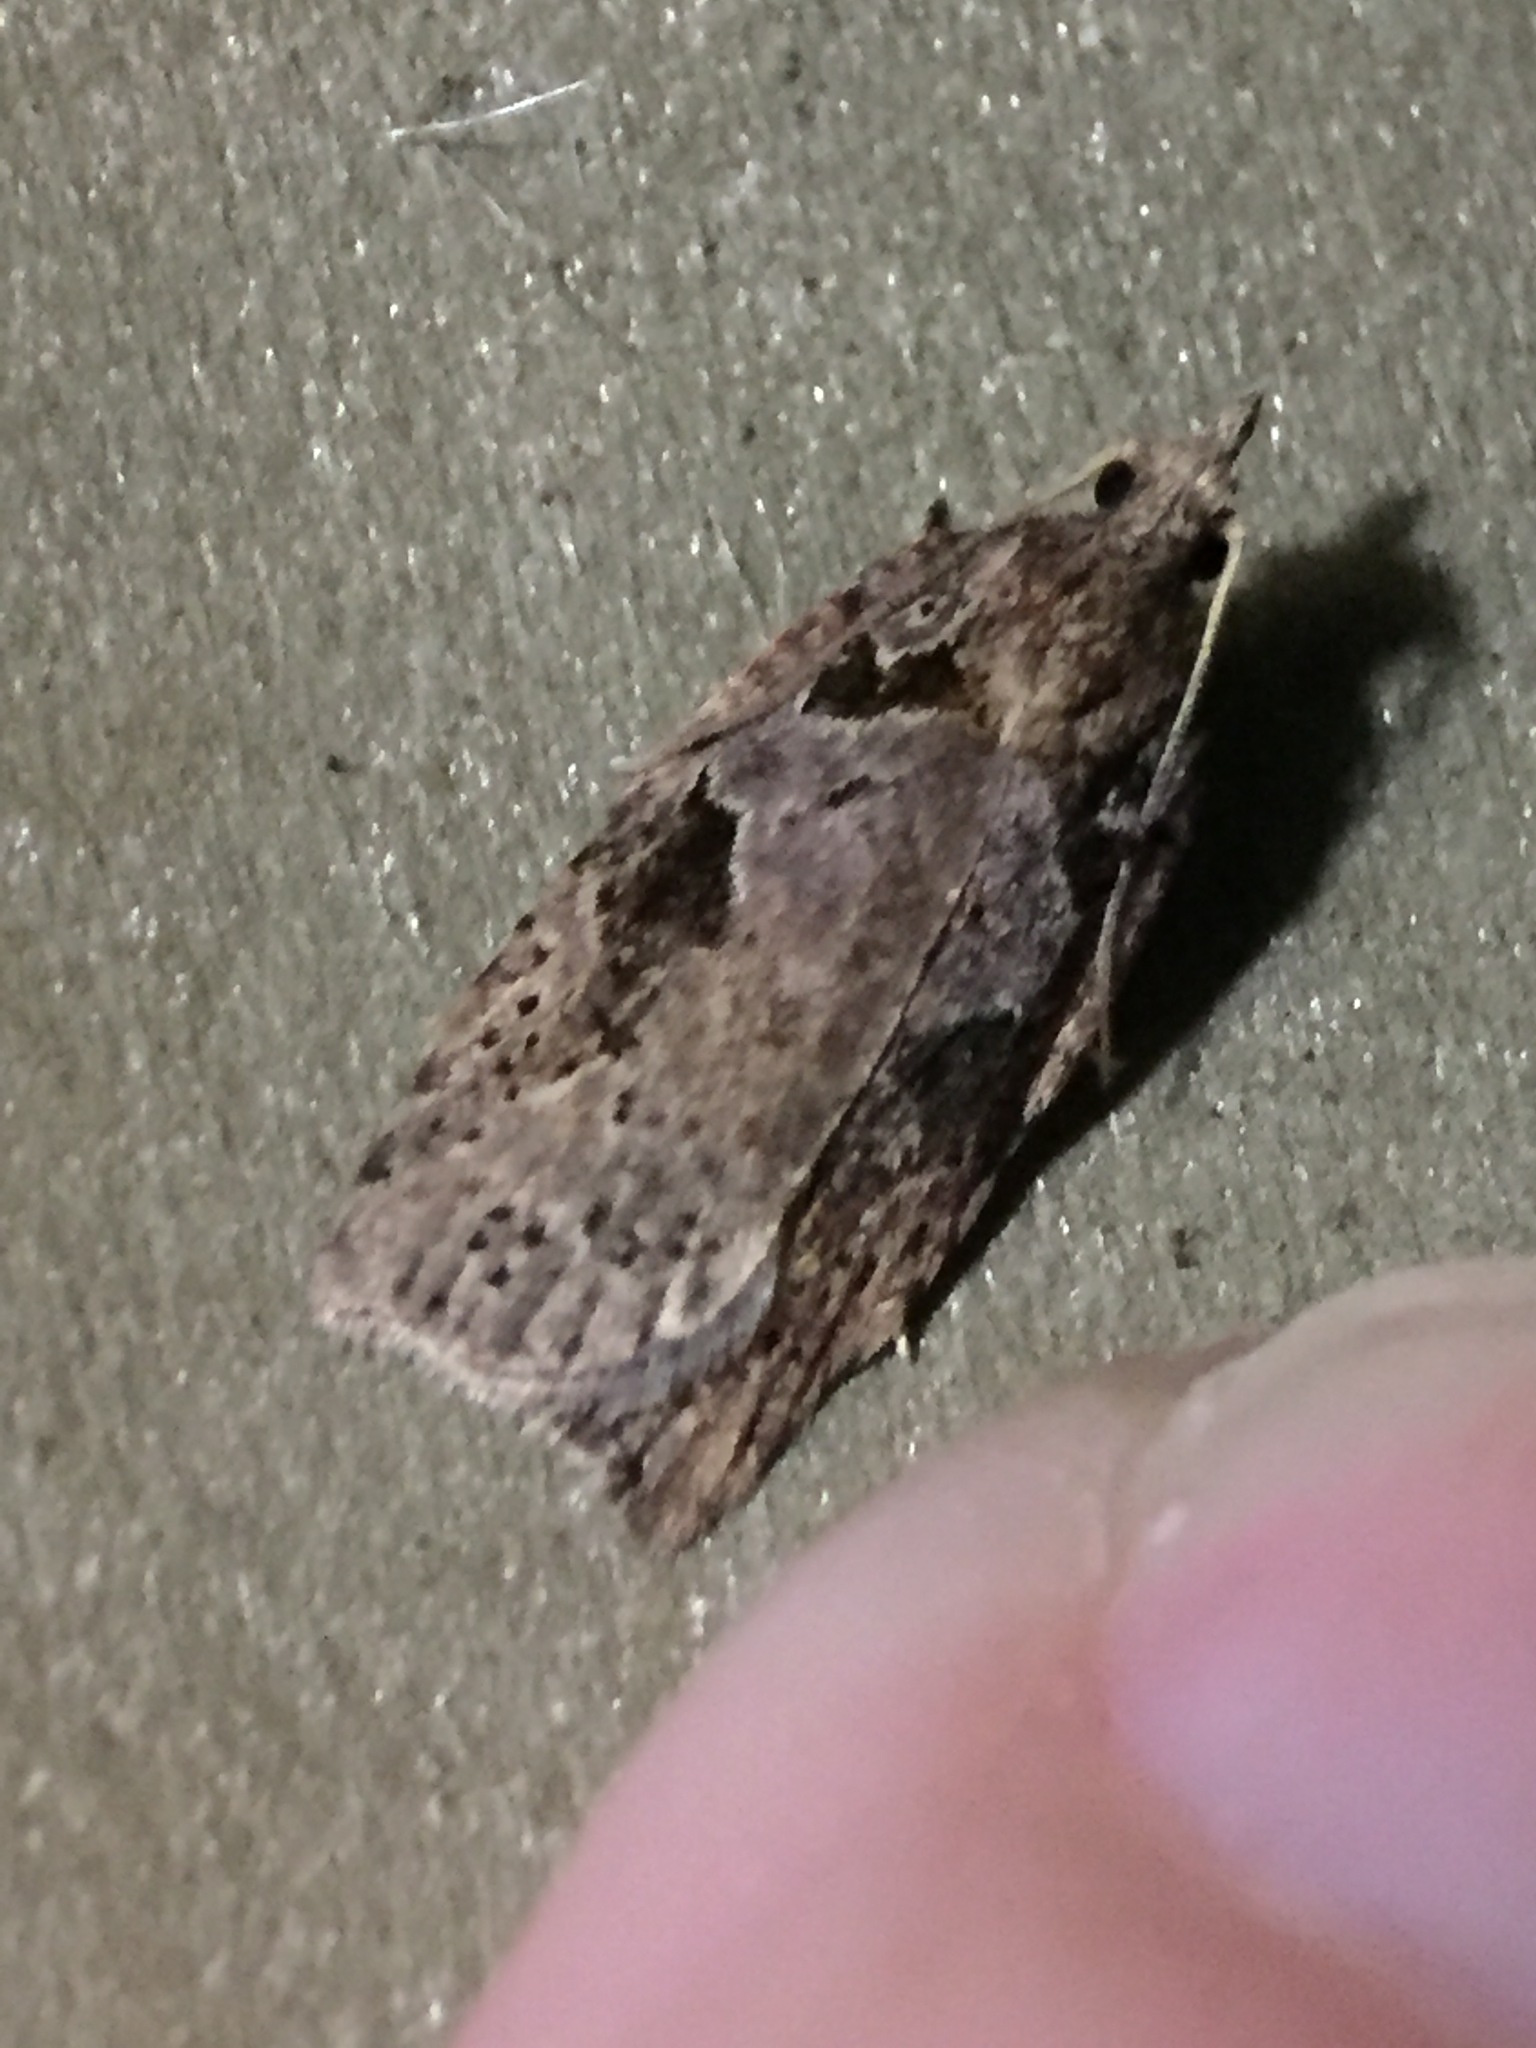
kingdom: Animalia
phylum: Arthropoda
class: Insecta
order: Lepidoptera
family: Tortricidae
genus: Ctenopseustis
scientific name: Ctenopseustis fraterna
